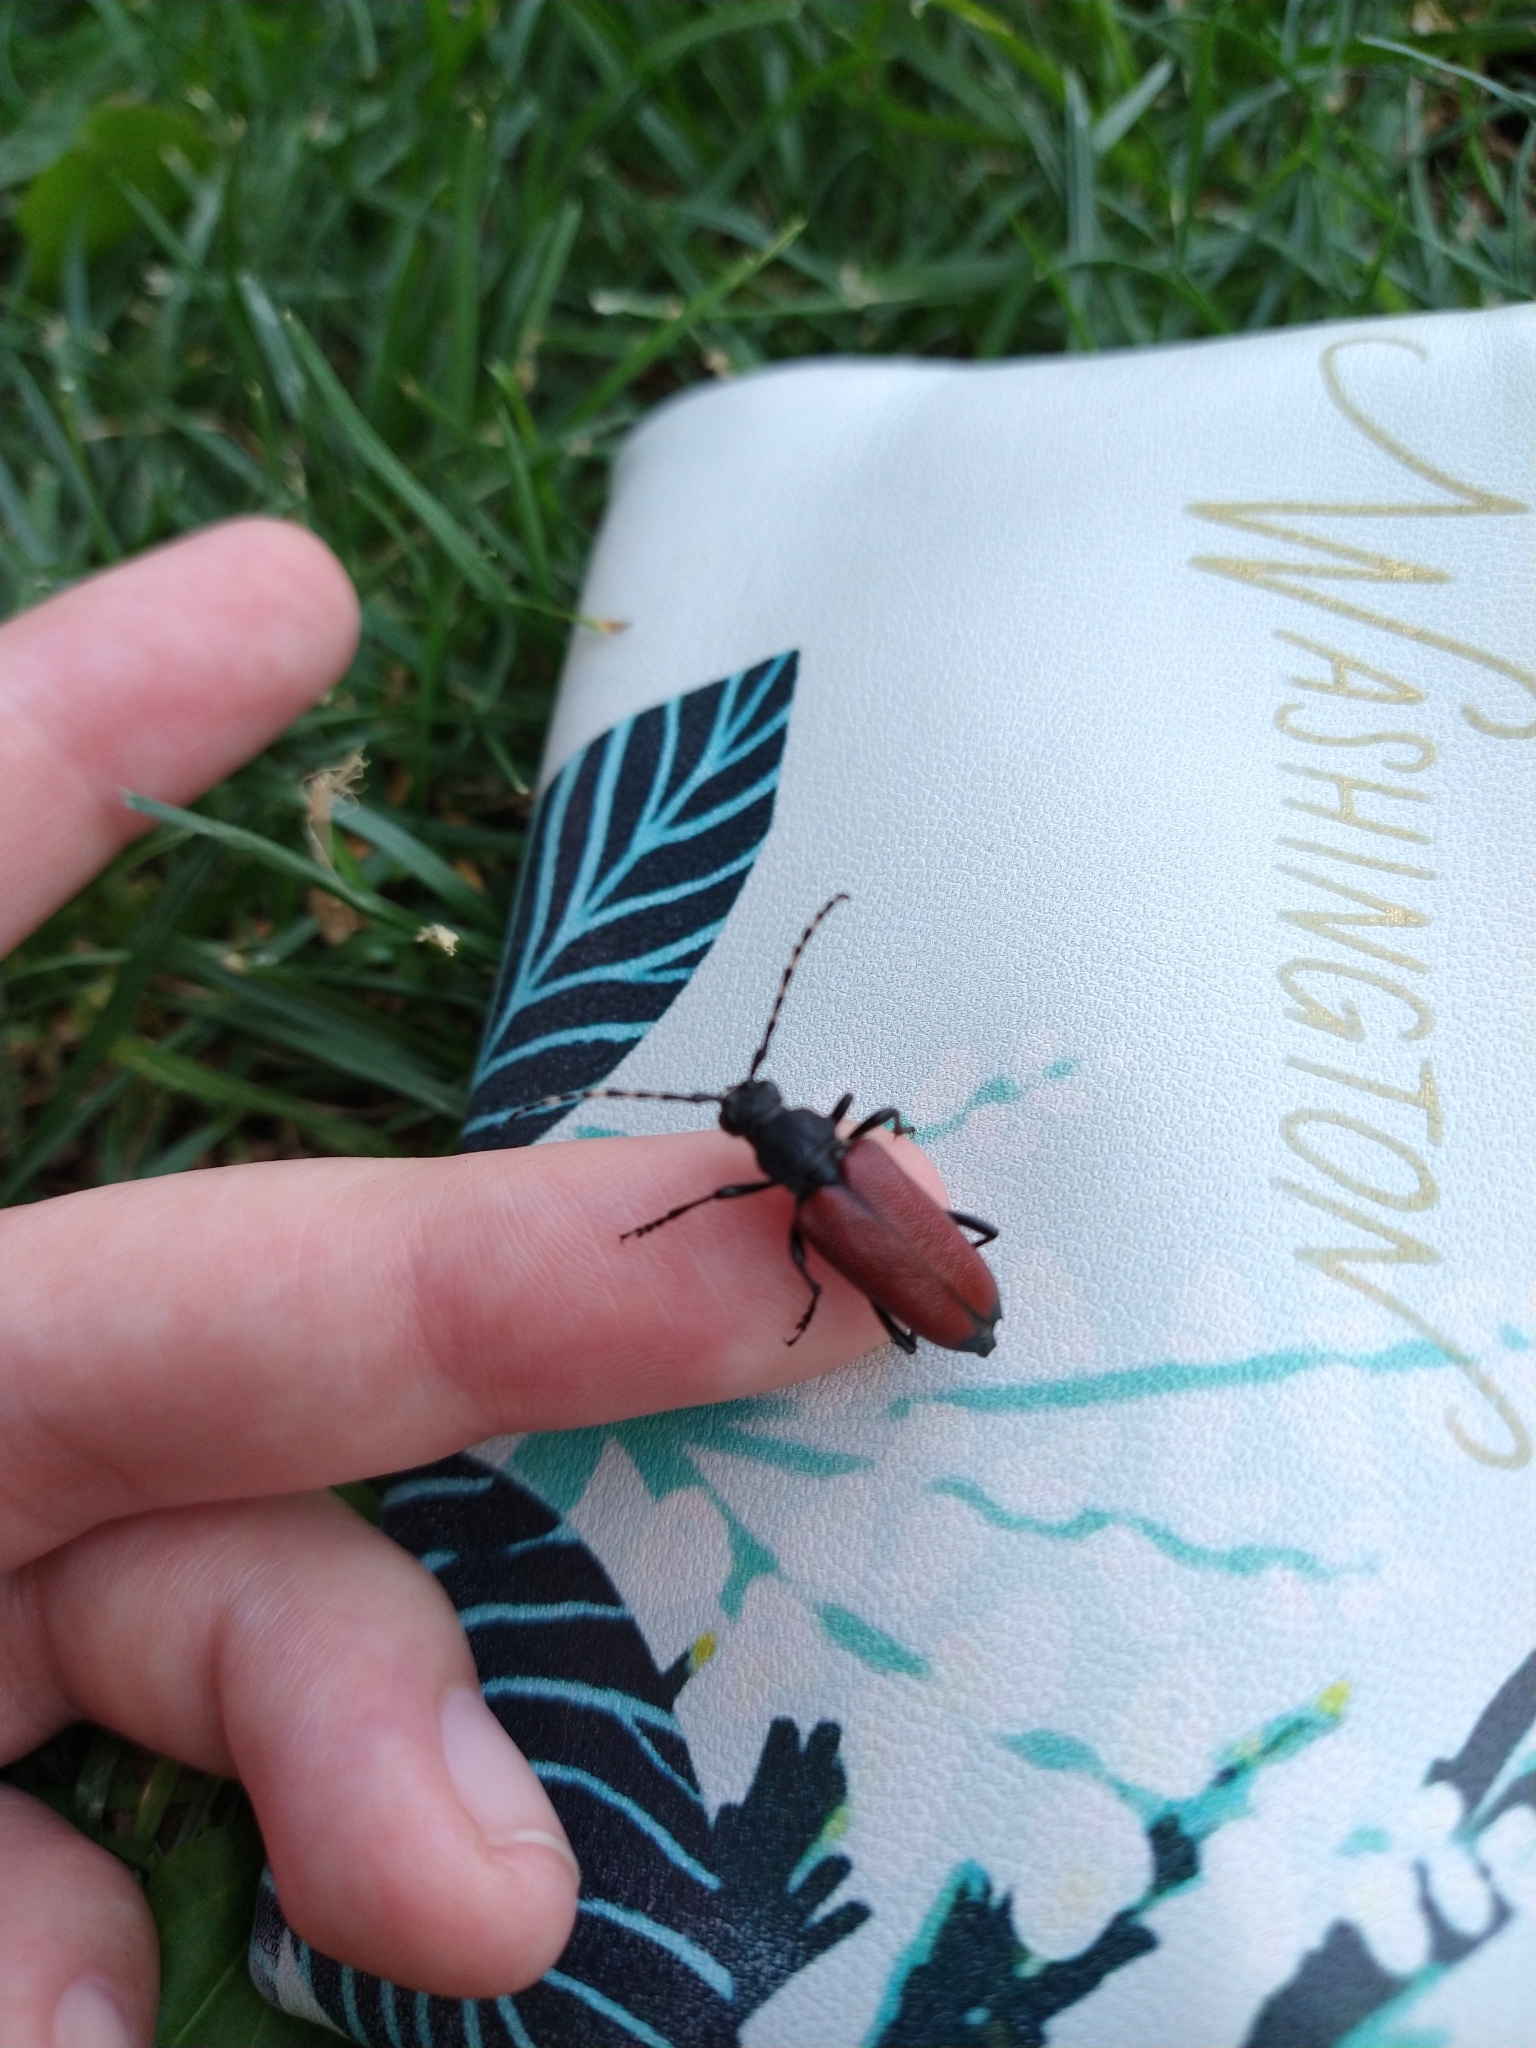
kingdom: Animalia
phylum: Arthropoda
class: Insecta
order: Coleoptera
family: Cerambycidae
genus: Stictoleptura
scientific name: Stictoleptura canadensis
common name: Red-shouldered pine borer
